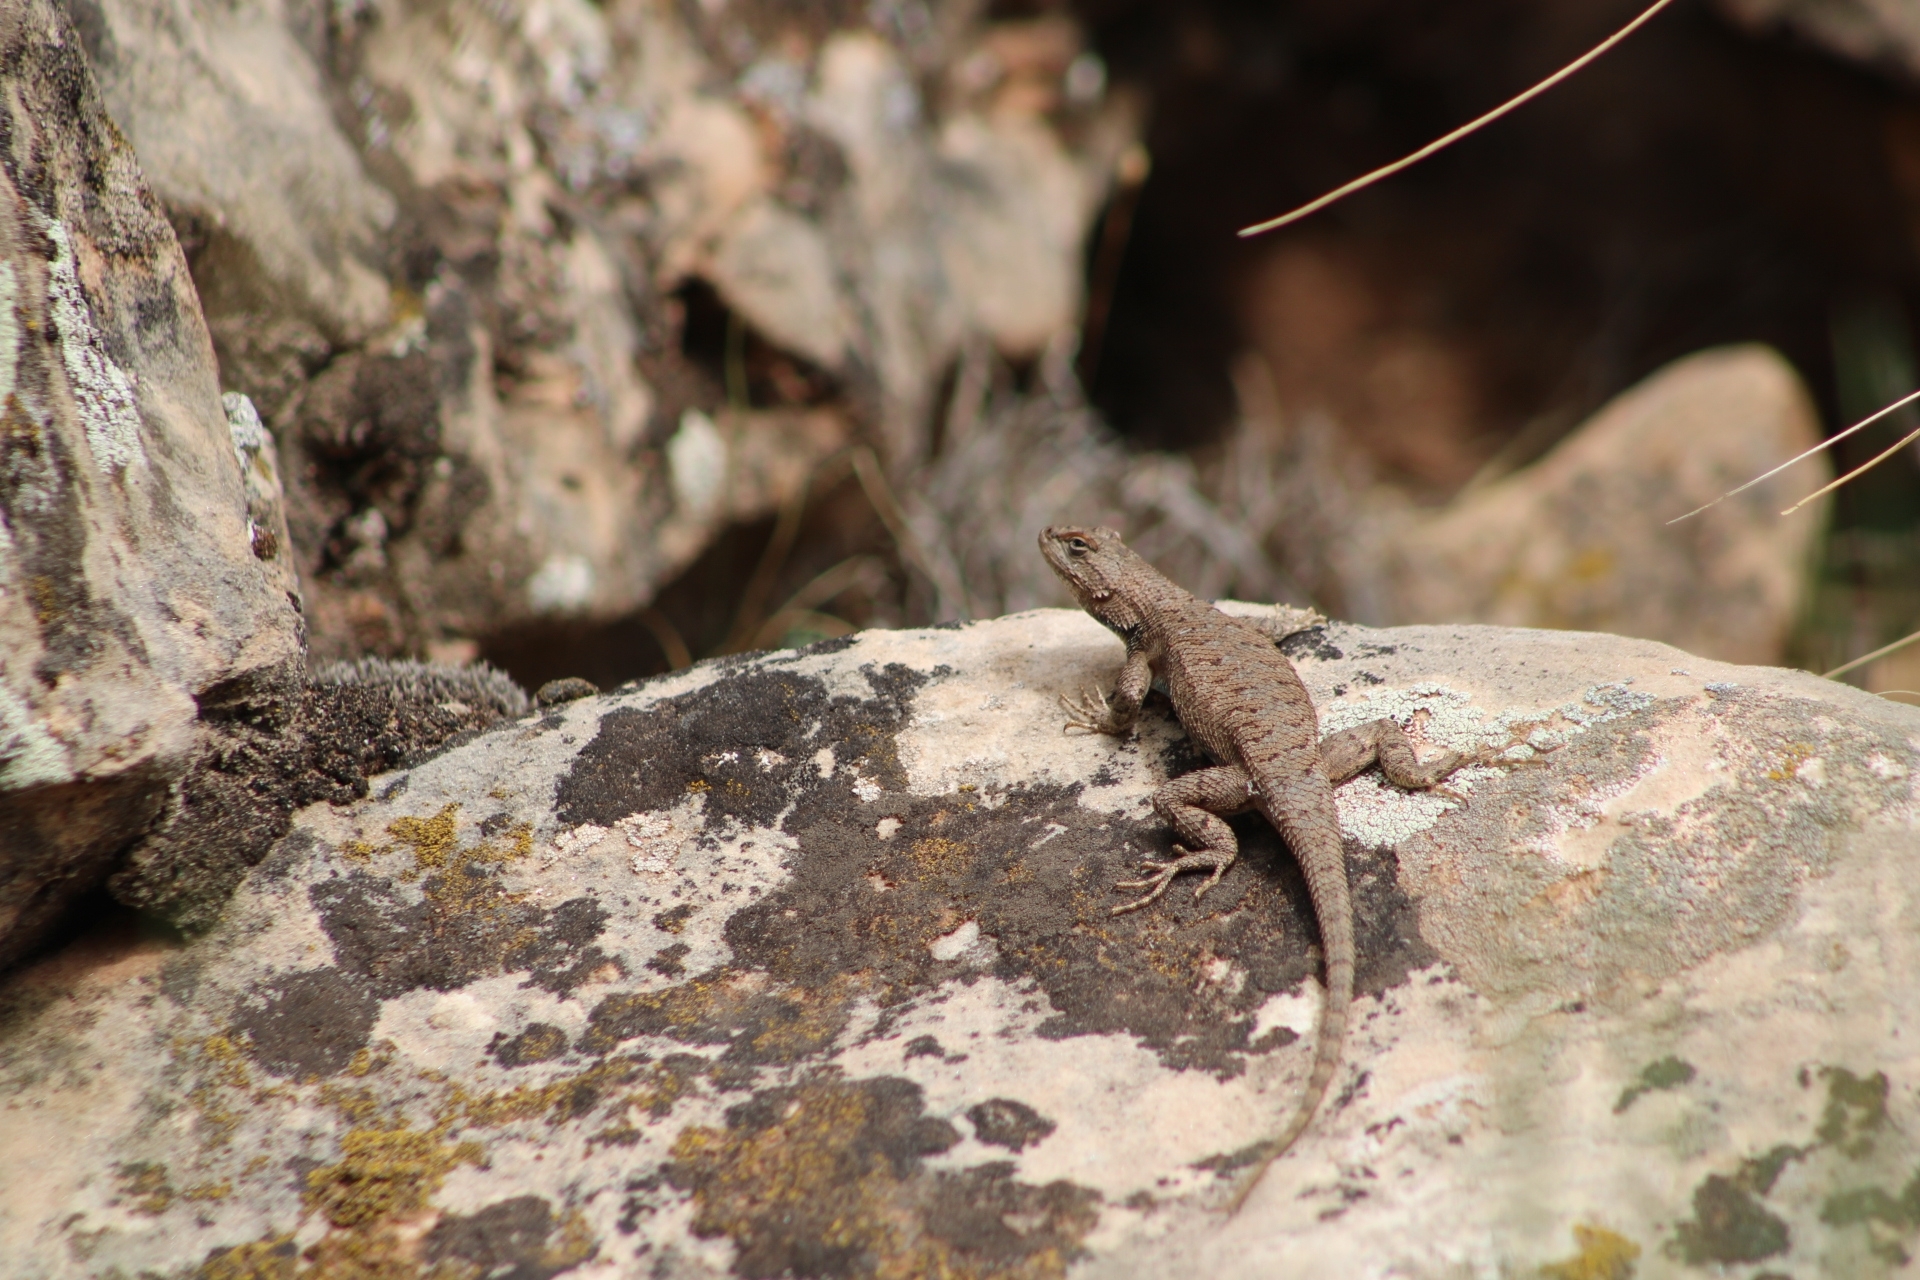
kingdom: Animalia
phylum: Chordata
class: Squamata
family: Phrynosomatidae
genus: Sceloporus
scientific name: Sceloporus tristichus
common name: Plateau fence lizard
